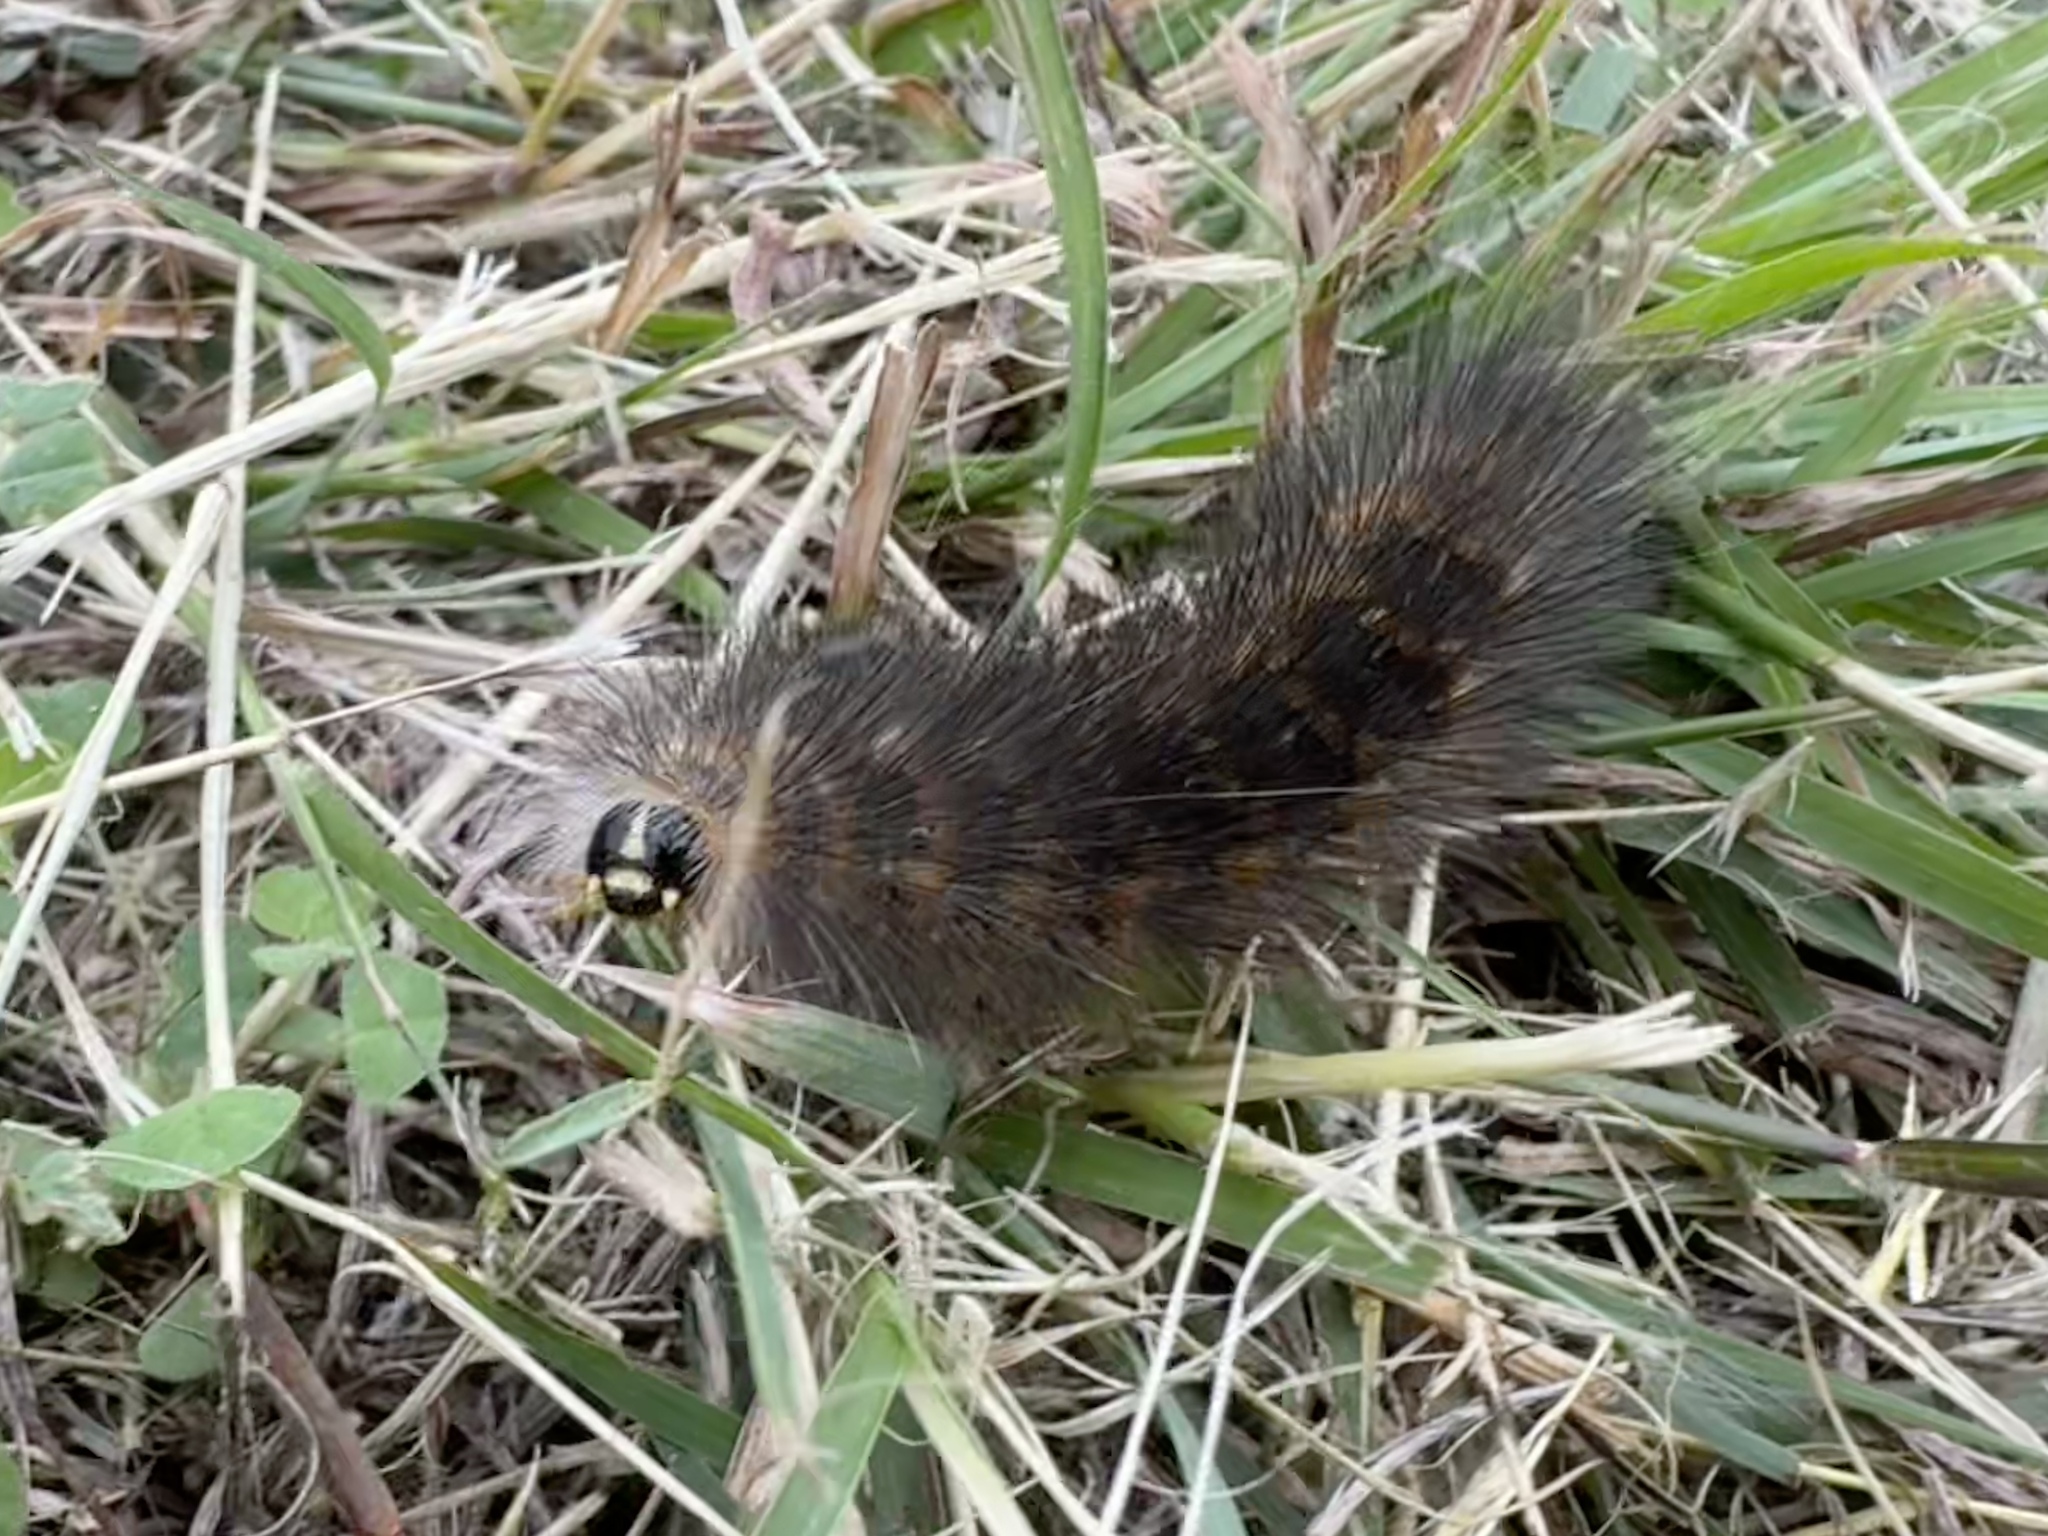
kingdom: Animalia
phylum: Arthropoda
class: Insecta
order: Lepidoptera
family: Erebidae
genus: Estigmene
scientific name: Estigmene acrea
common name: Salt marsh moth
